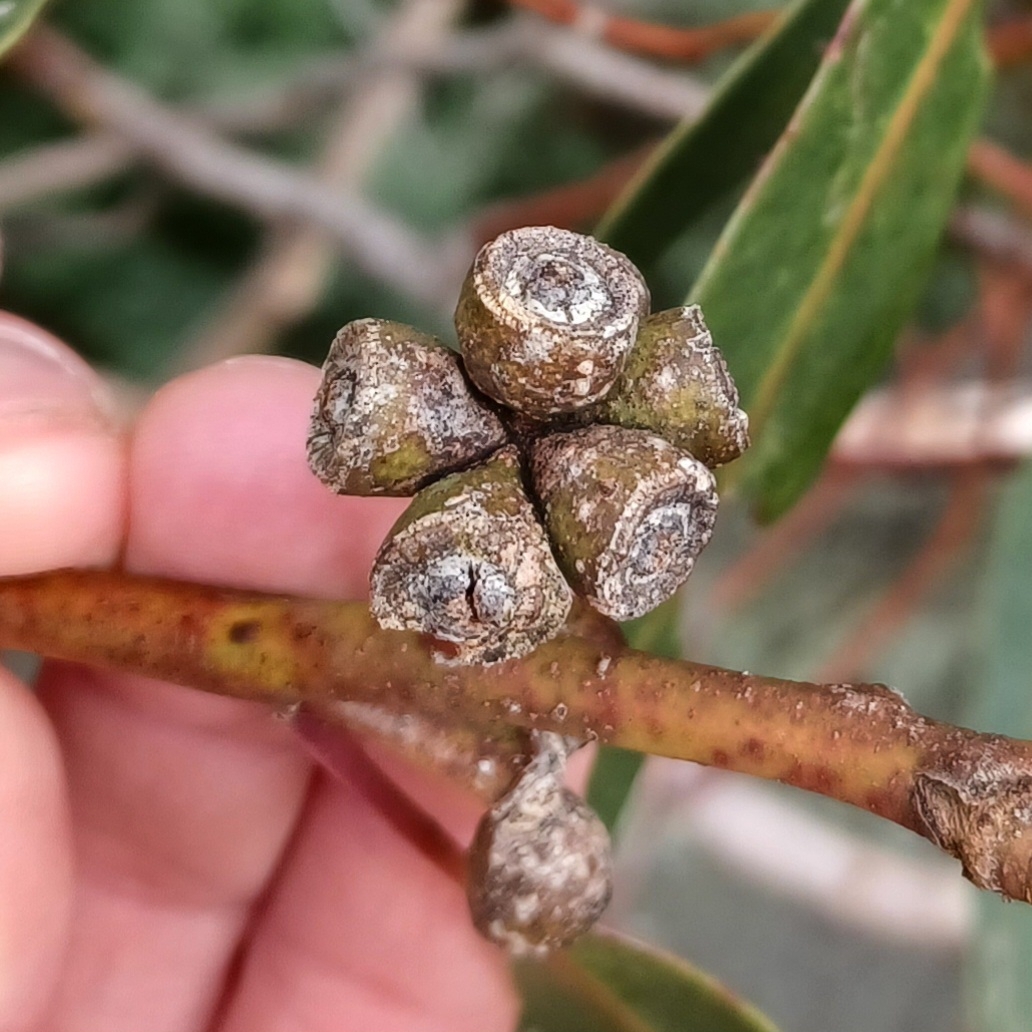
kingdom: Plantae
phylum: Tracheophyta
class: Magnoliopsida
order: Myrtales
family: Myrtaceae
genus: Eucalyptus
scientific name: Eucalyptus goniocalyx
